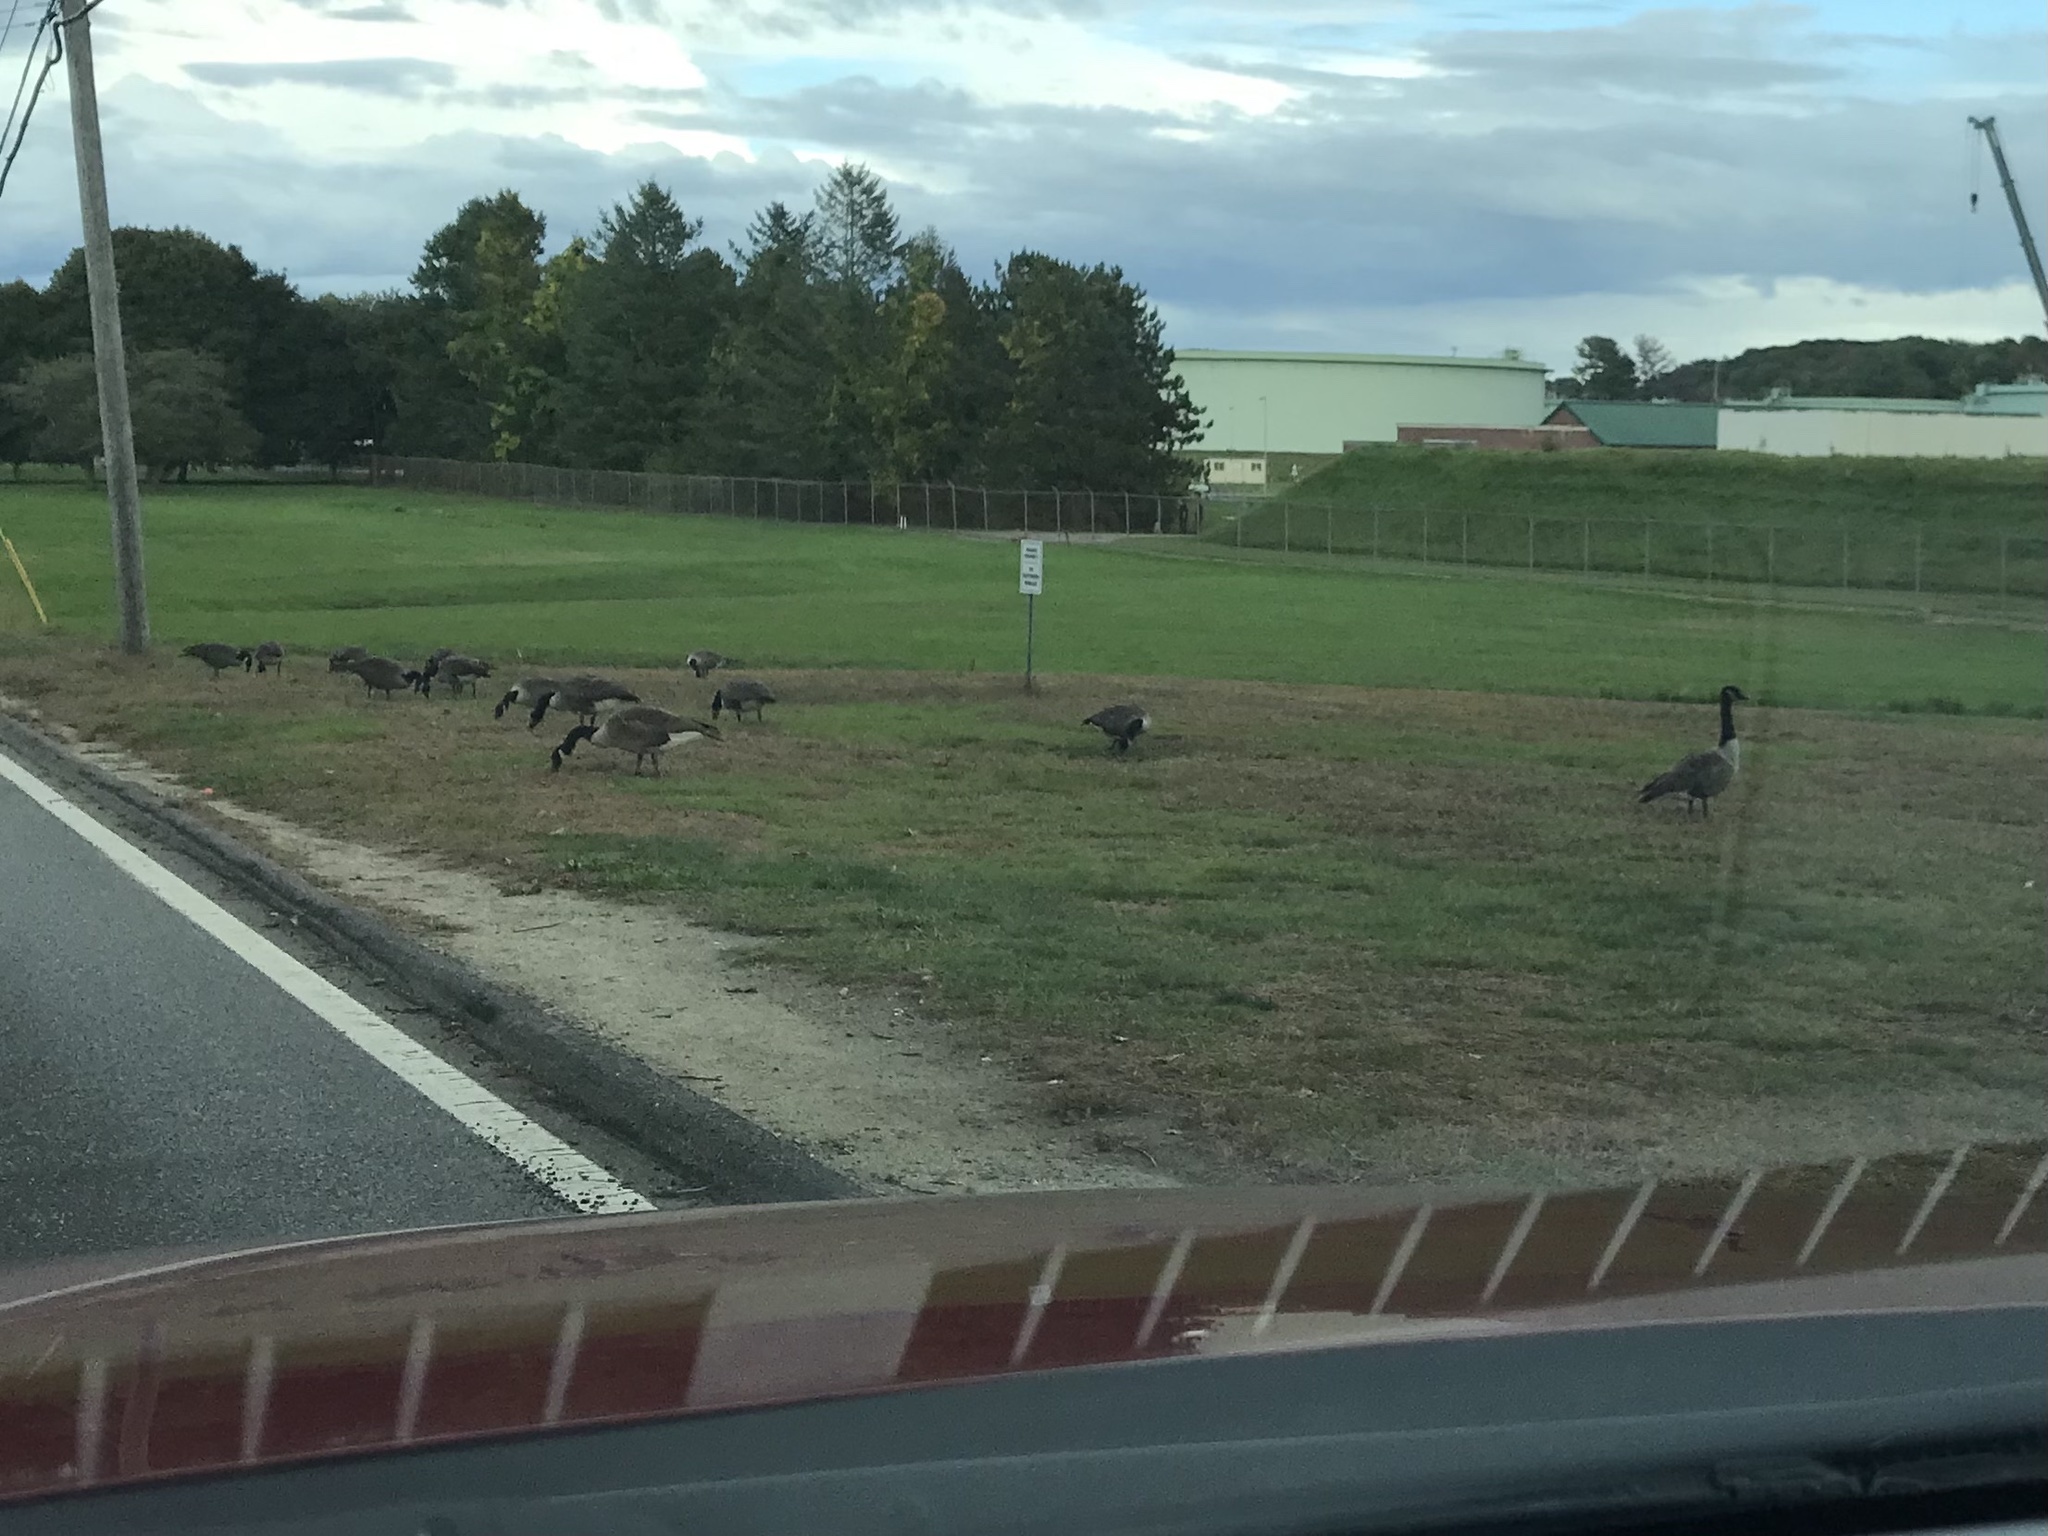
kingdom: Animalia
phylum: Chordata
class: Aves
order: Anseriformes
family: Anatidae
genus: Branta
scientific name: Branta canadensis
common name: Canada goose
